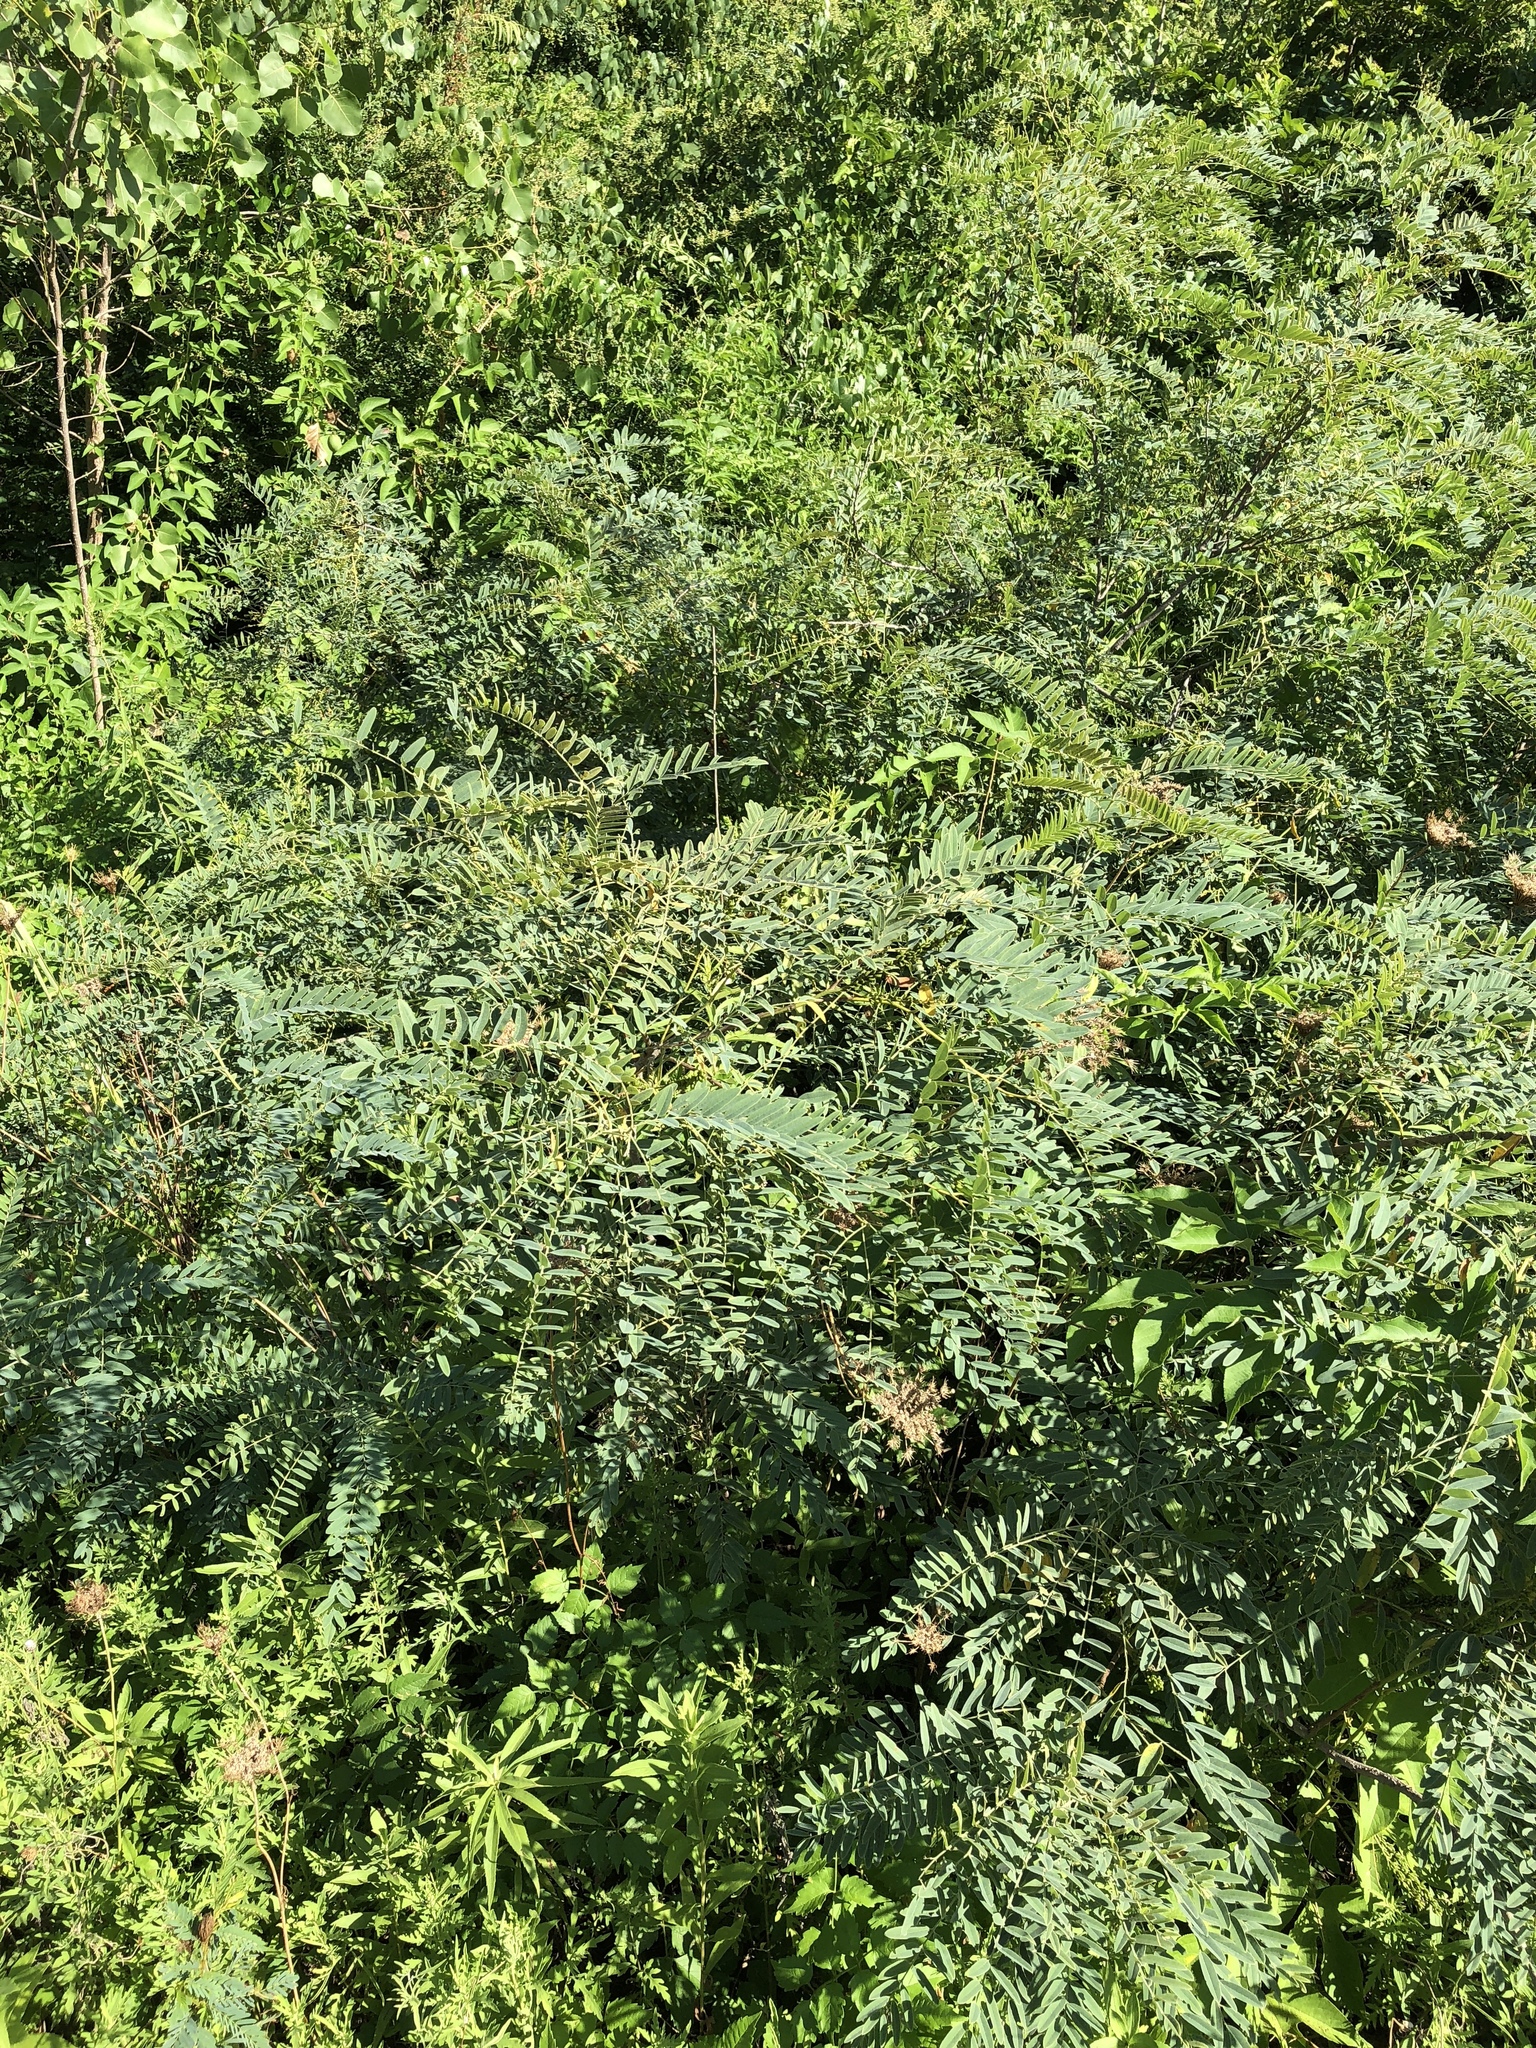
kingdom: Plantae
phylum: Tracheophyta
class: Magnoliopsida
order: Fabales
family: Fabaceae
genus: Amorpha
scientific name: Amorpha fruticosa
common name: False indigo
